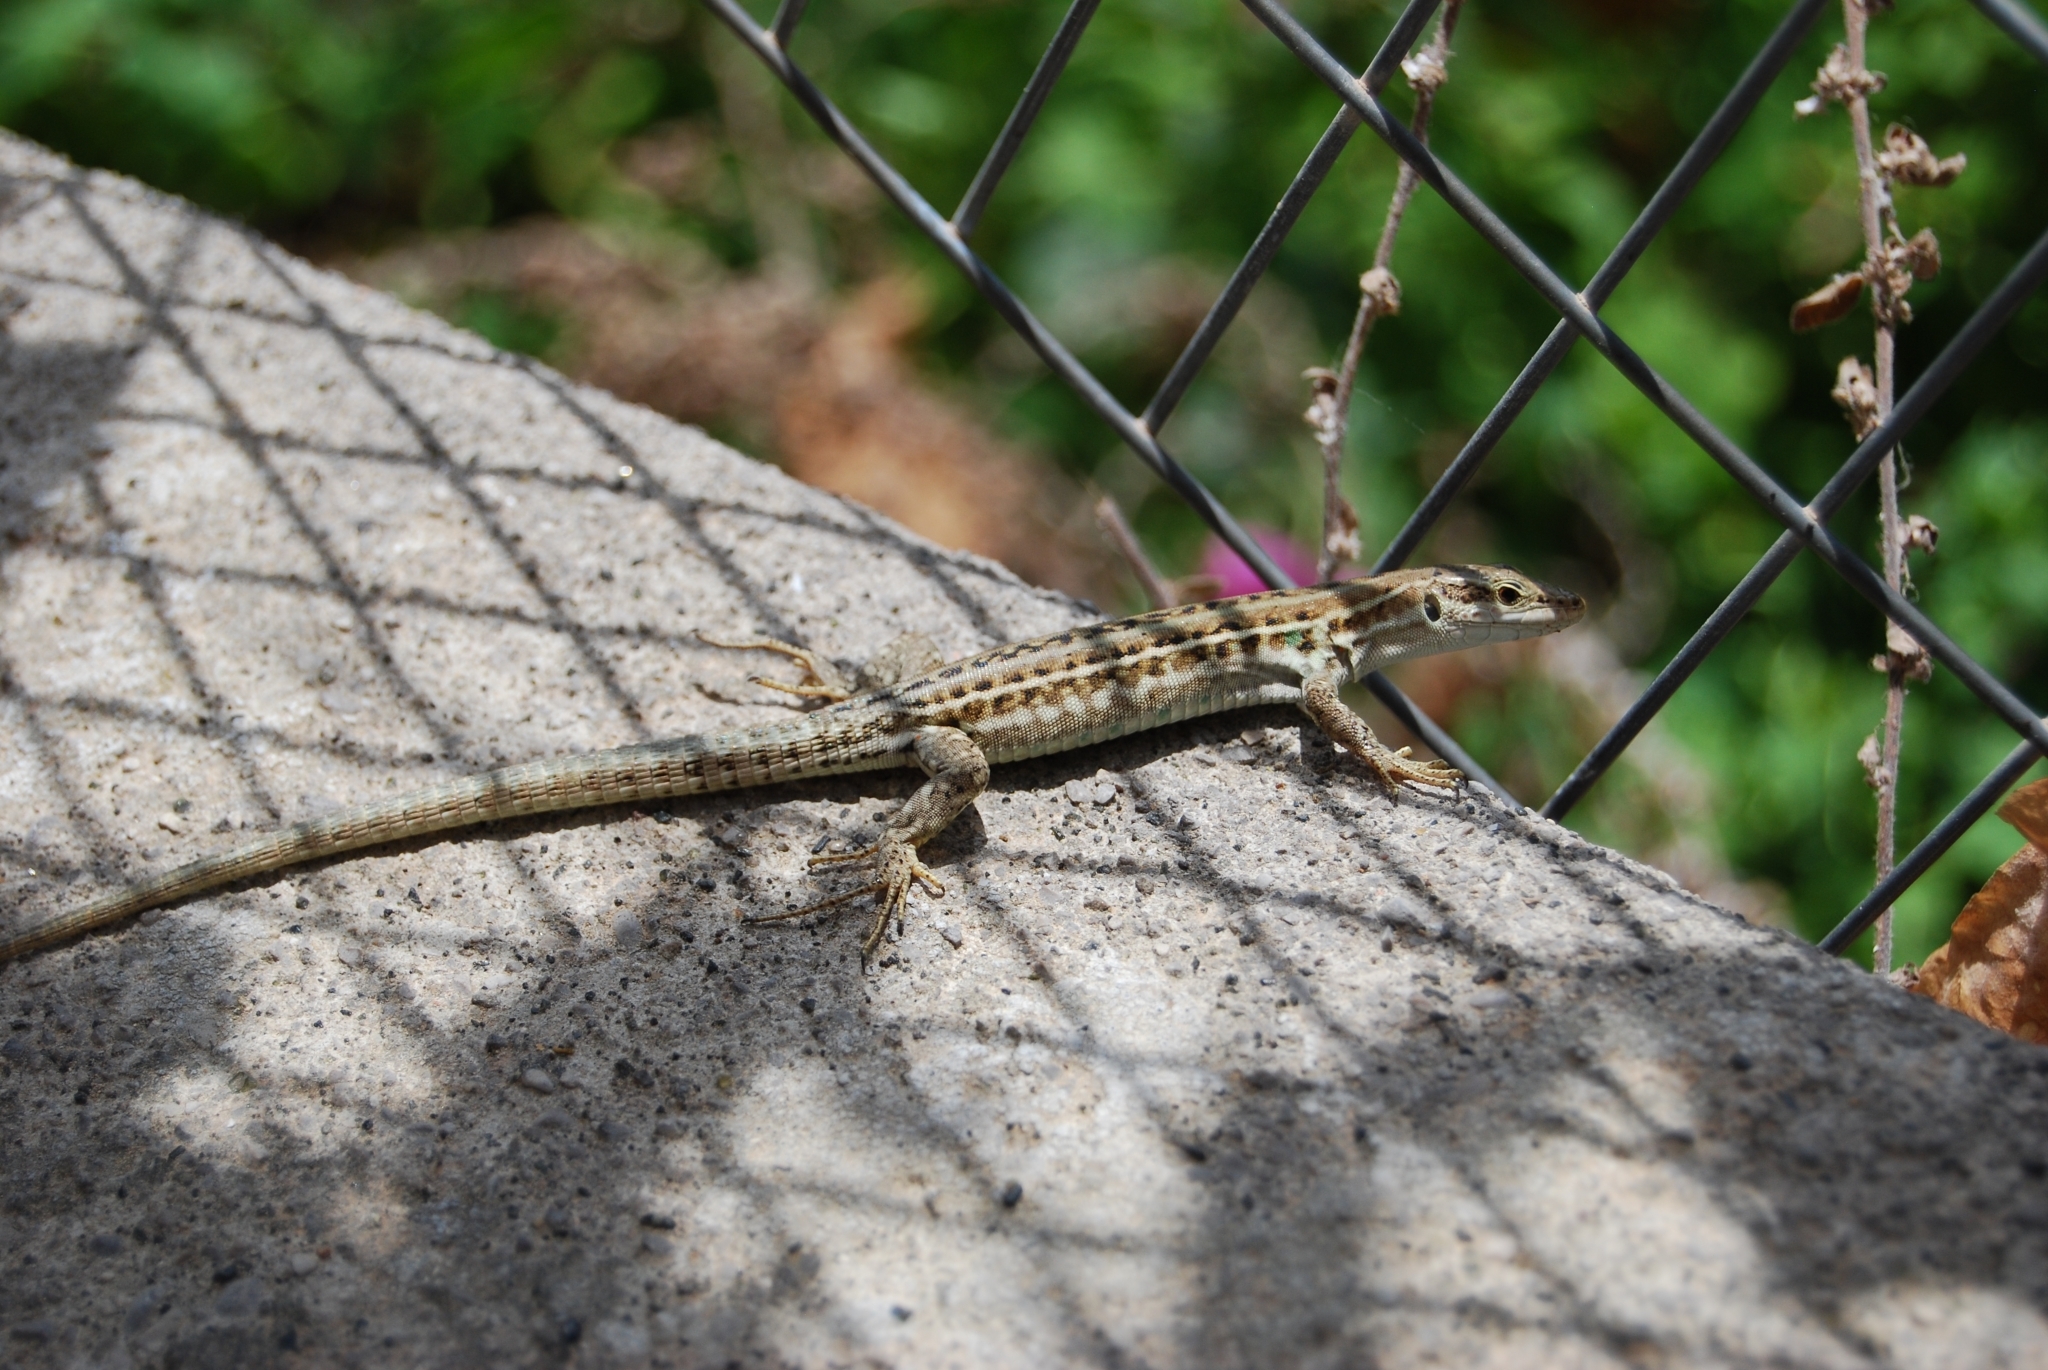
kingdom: Animalia
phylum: Chordata
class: Squamata
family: Lacertidae
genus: Podarcis
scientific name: Podarcis siculus
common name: Italian wall lizard
